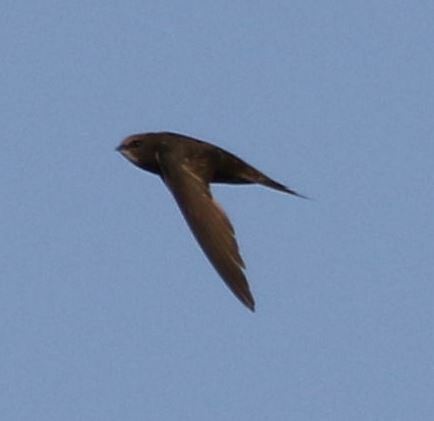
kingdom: Animalia
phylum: Chordata
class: Aves
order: Apodiformes
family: Apodidae
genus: Apus
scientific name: Apus apus
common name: Common swift
